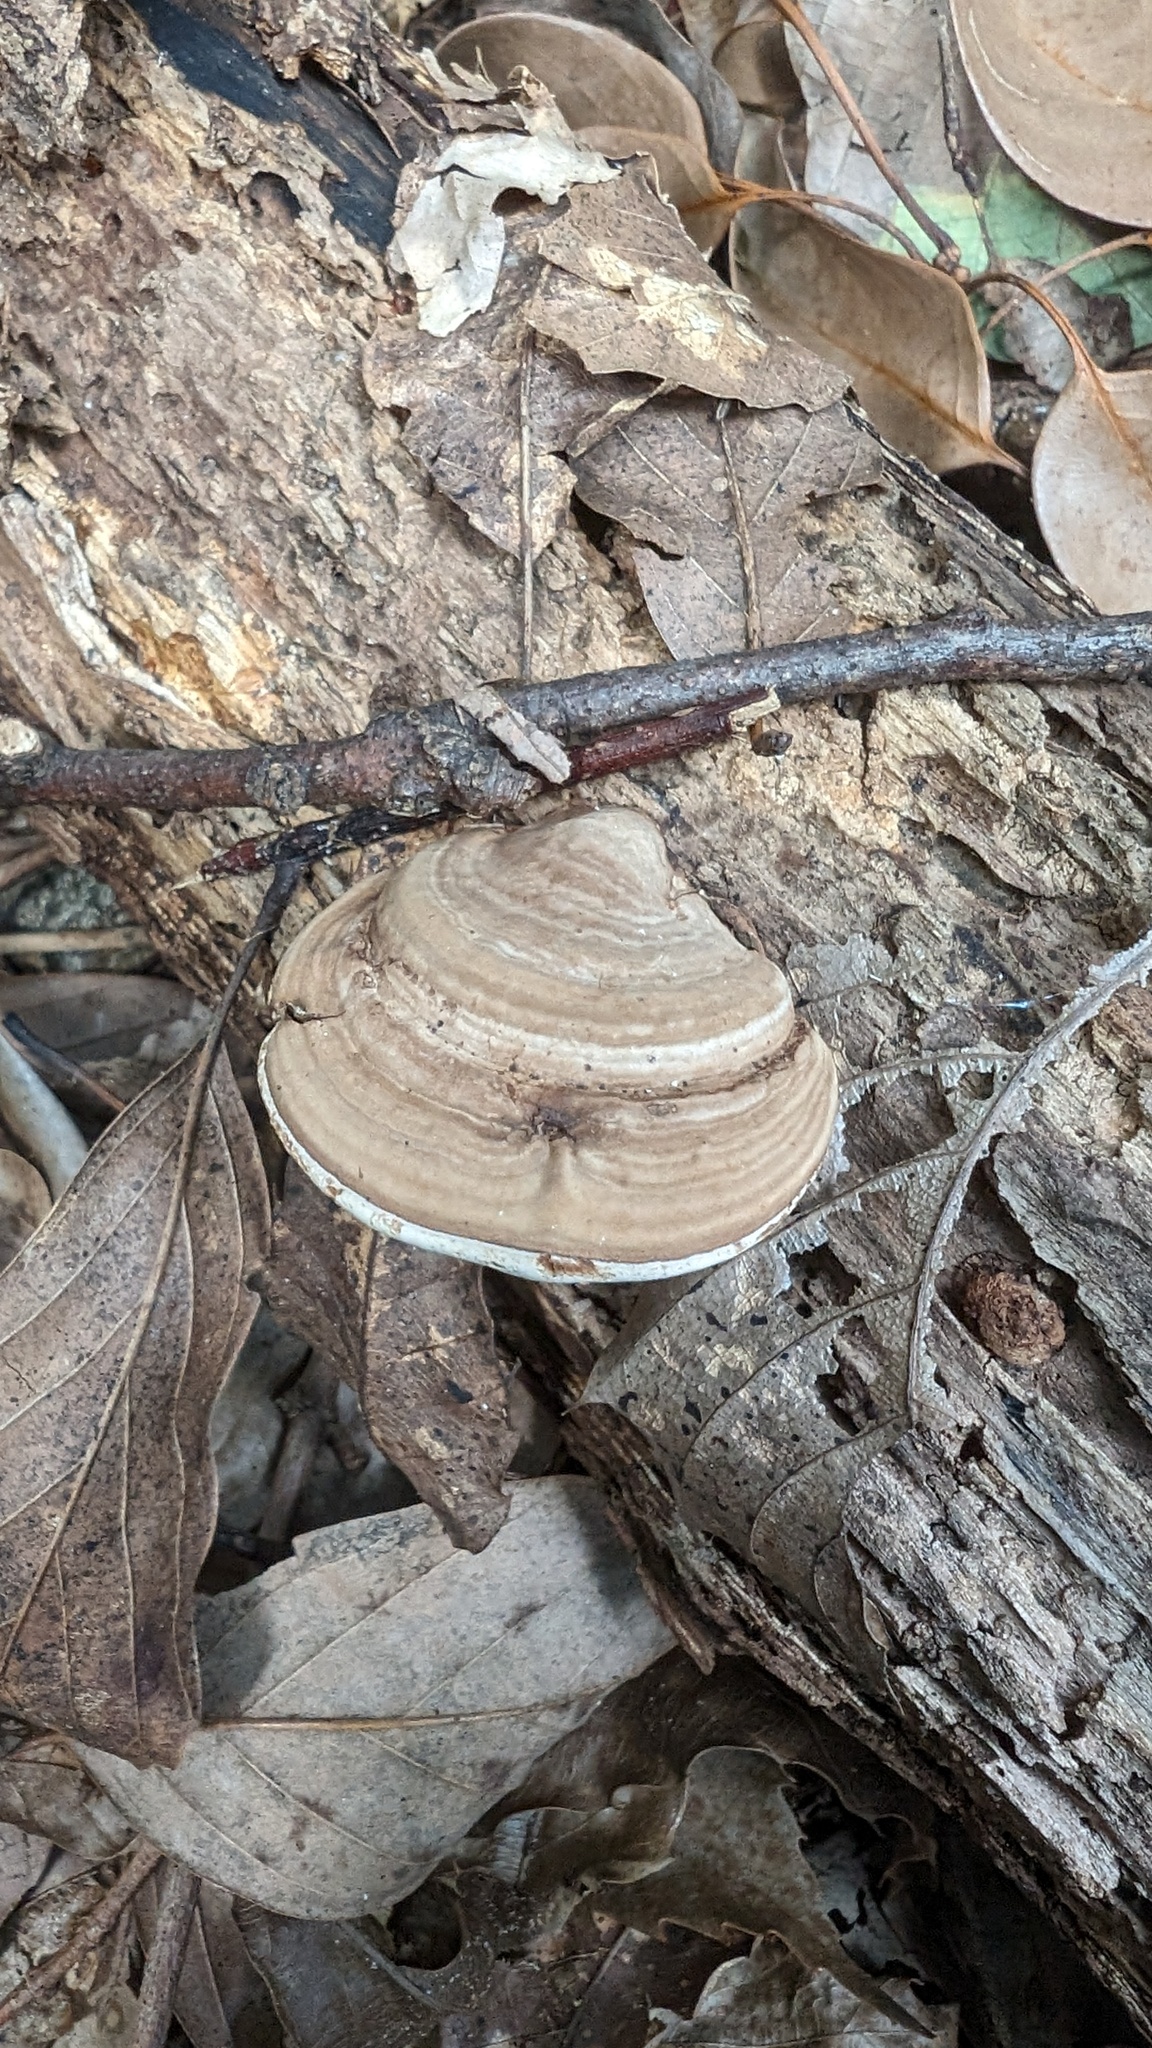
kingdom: Fungi
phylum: Basidiomycota
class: Agaricomycetes
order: Polyporales
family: Polyporaceae
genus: Ganoderma
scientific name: Ganoderma applanatum
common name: Artist's bracket
